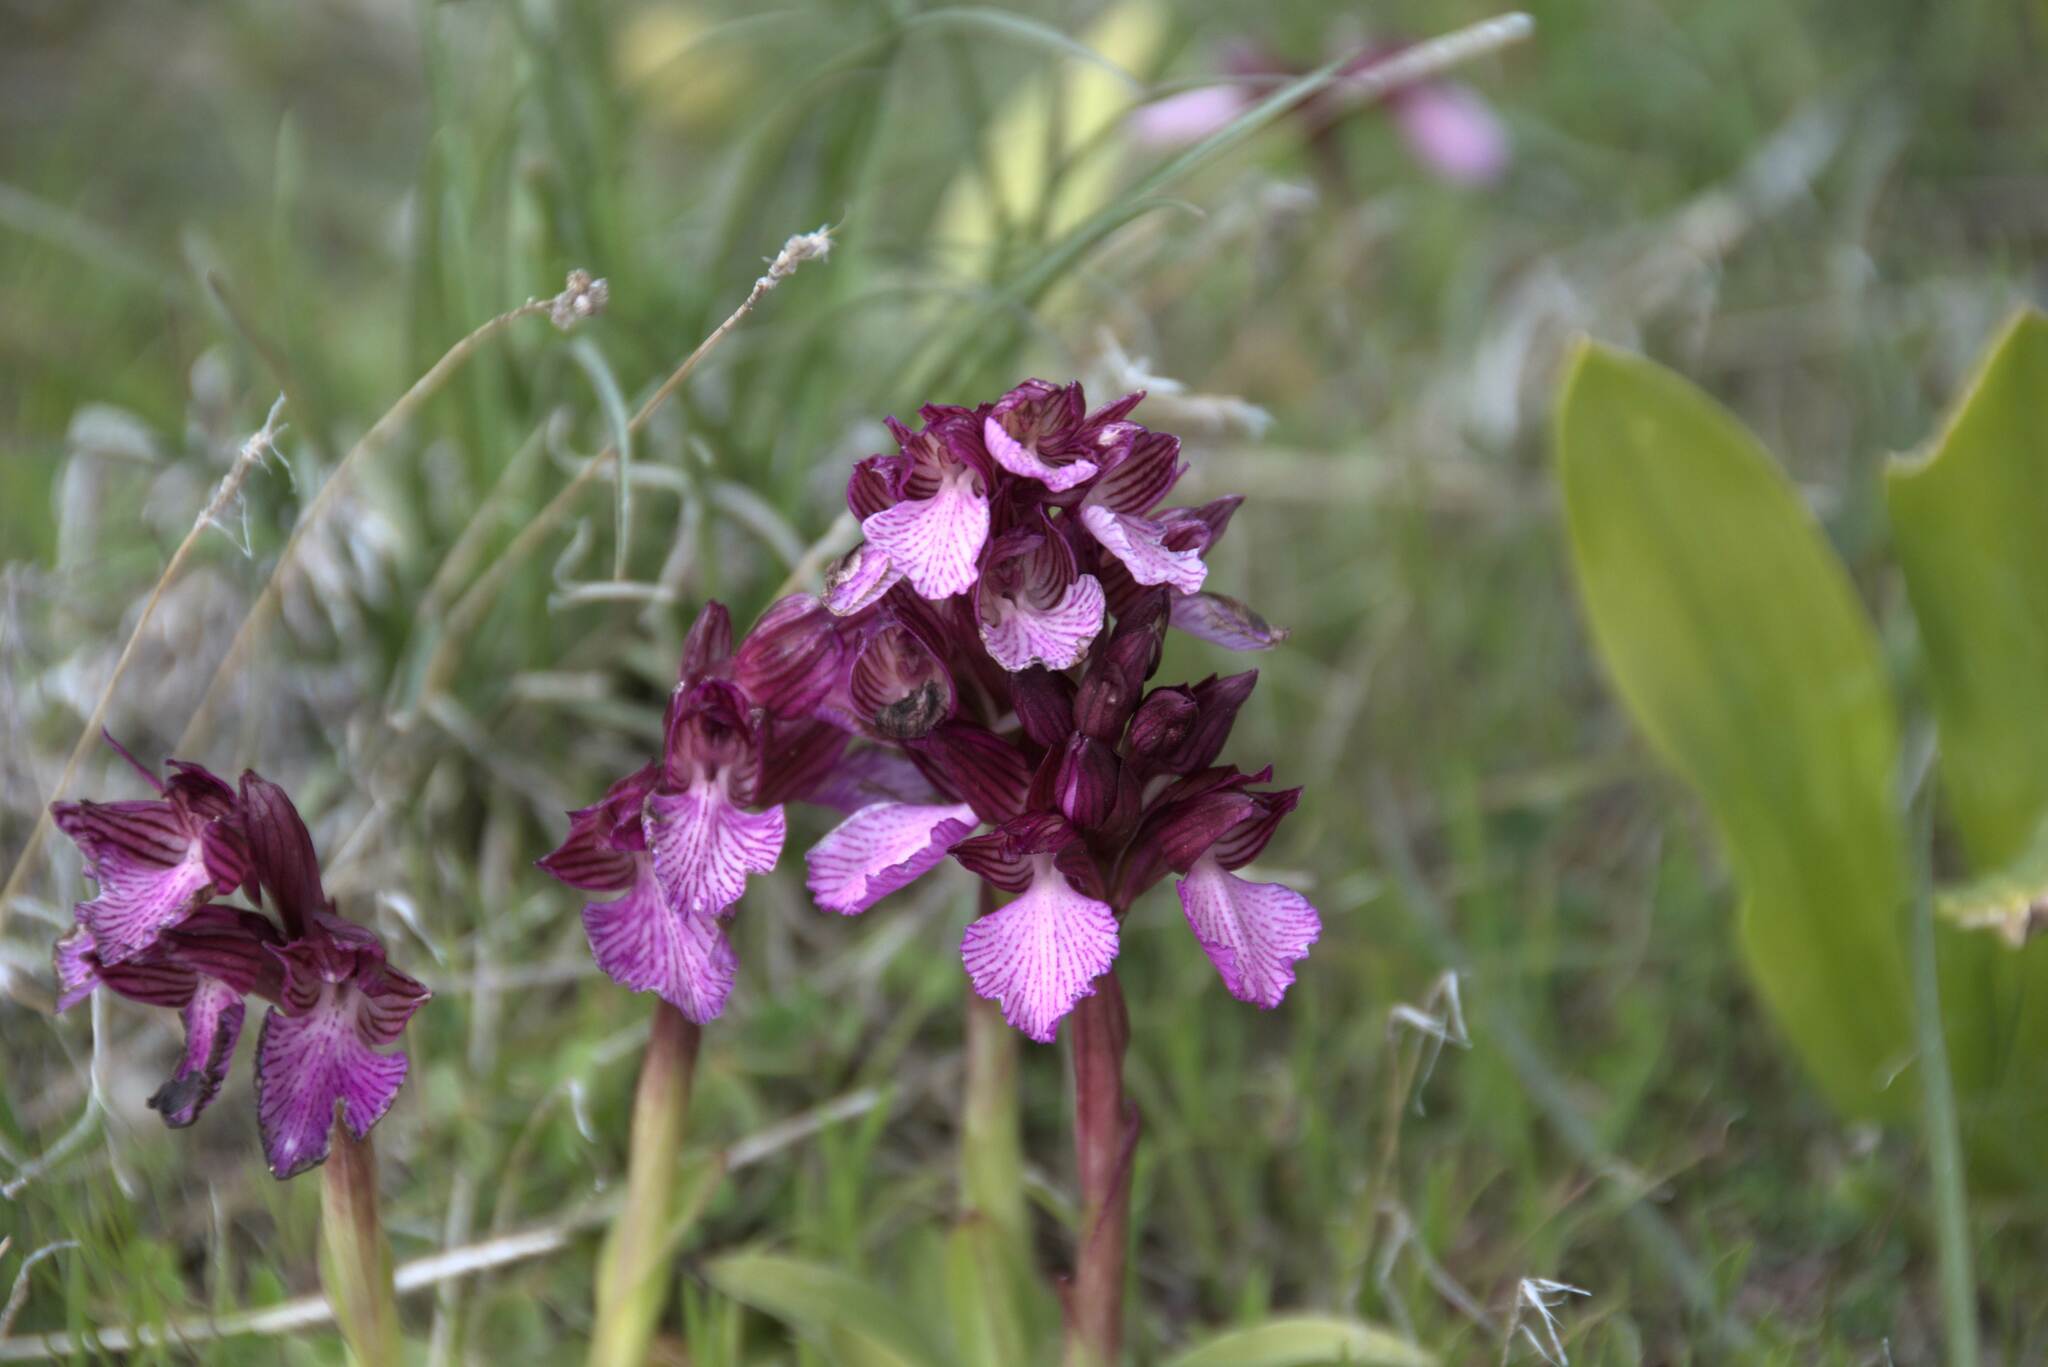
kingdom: Plantae
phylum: Tracheophyta
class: Liliopsida
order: Asparagales
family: Orchidaceae
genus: Anacamptis
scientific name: Anacamptis papilionacea
